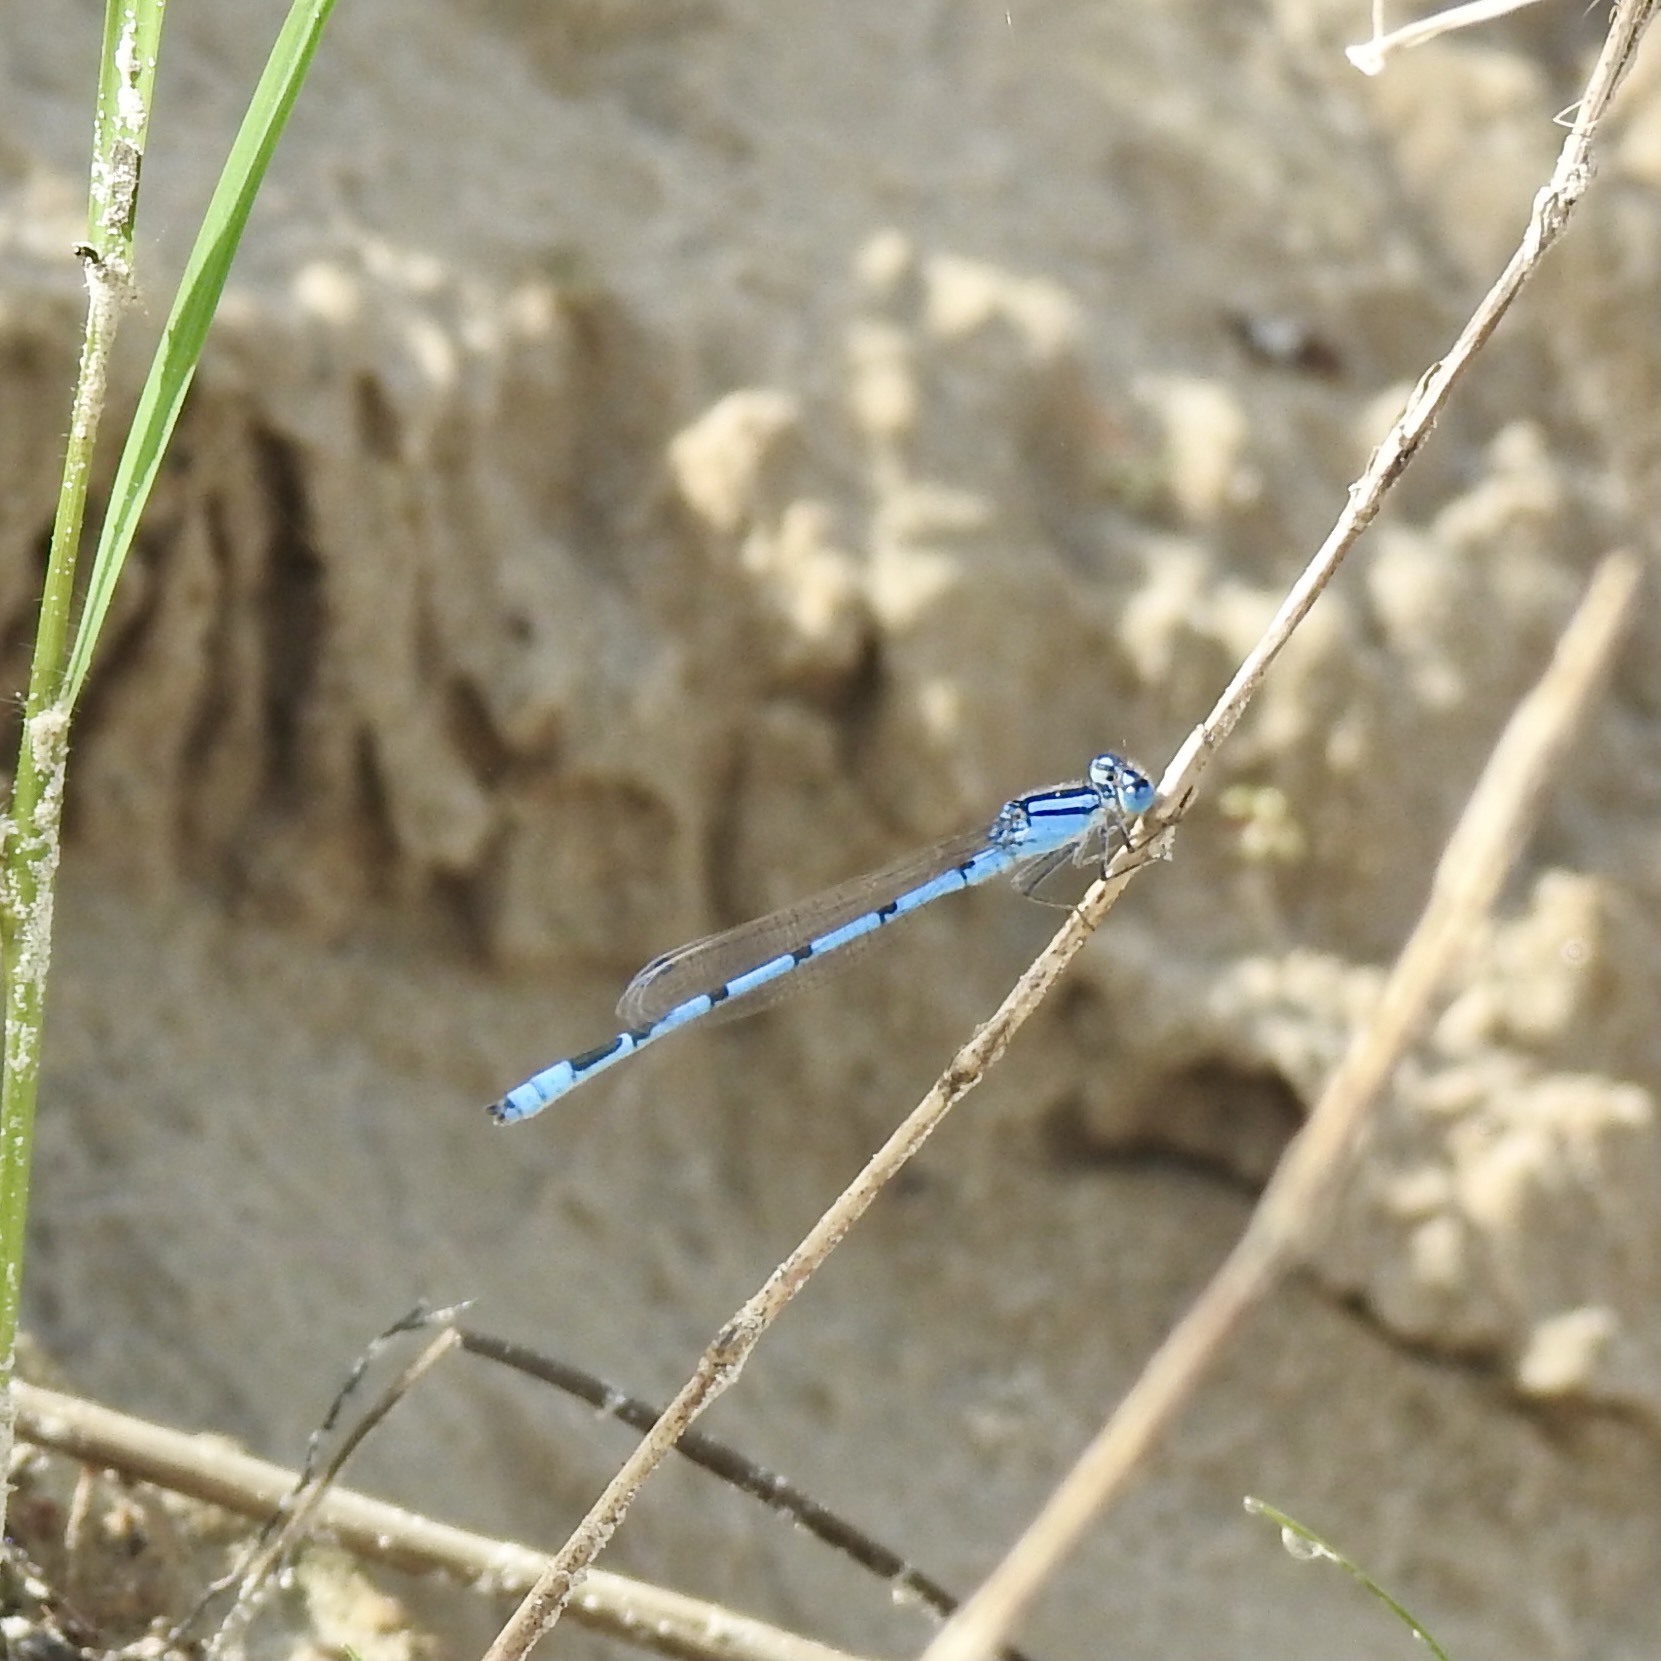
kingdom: Animalia
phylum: Arthropoda
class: Insecta
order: Odonata
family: Coenagrionidae
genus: Enallagma
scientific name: Enallagma civile
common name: Damselfly
